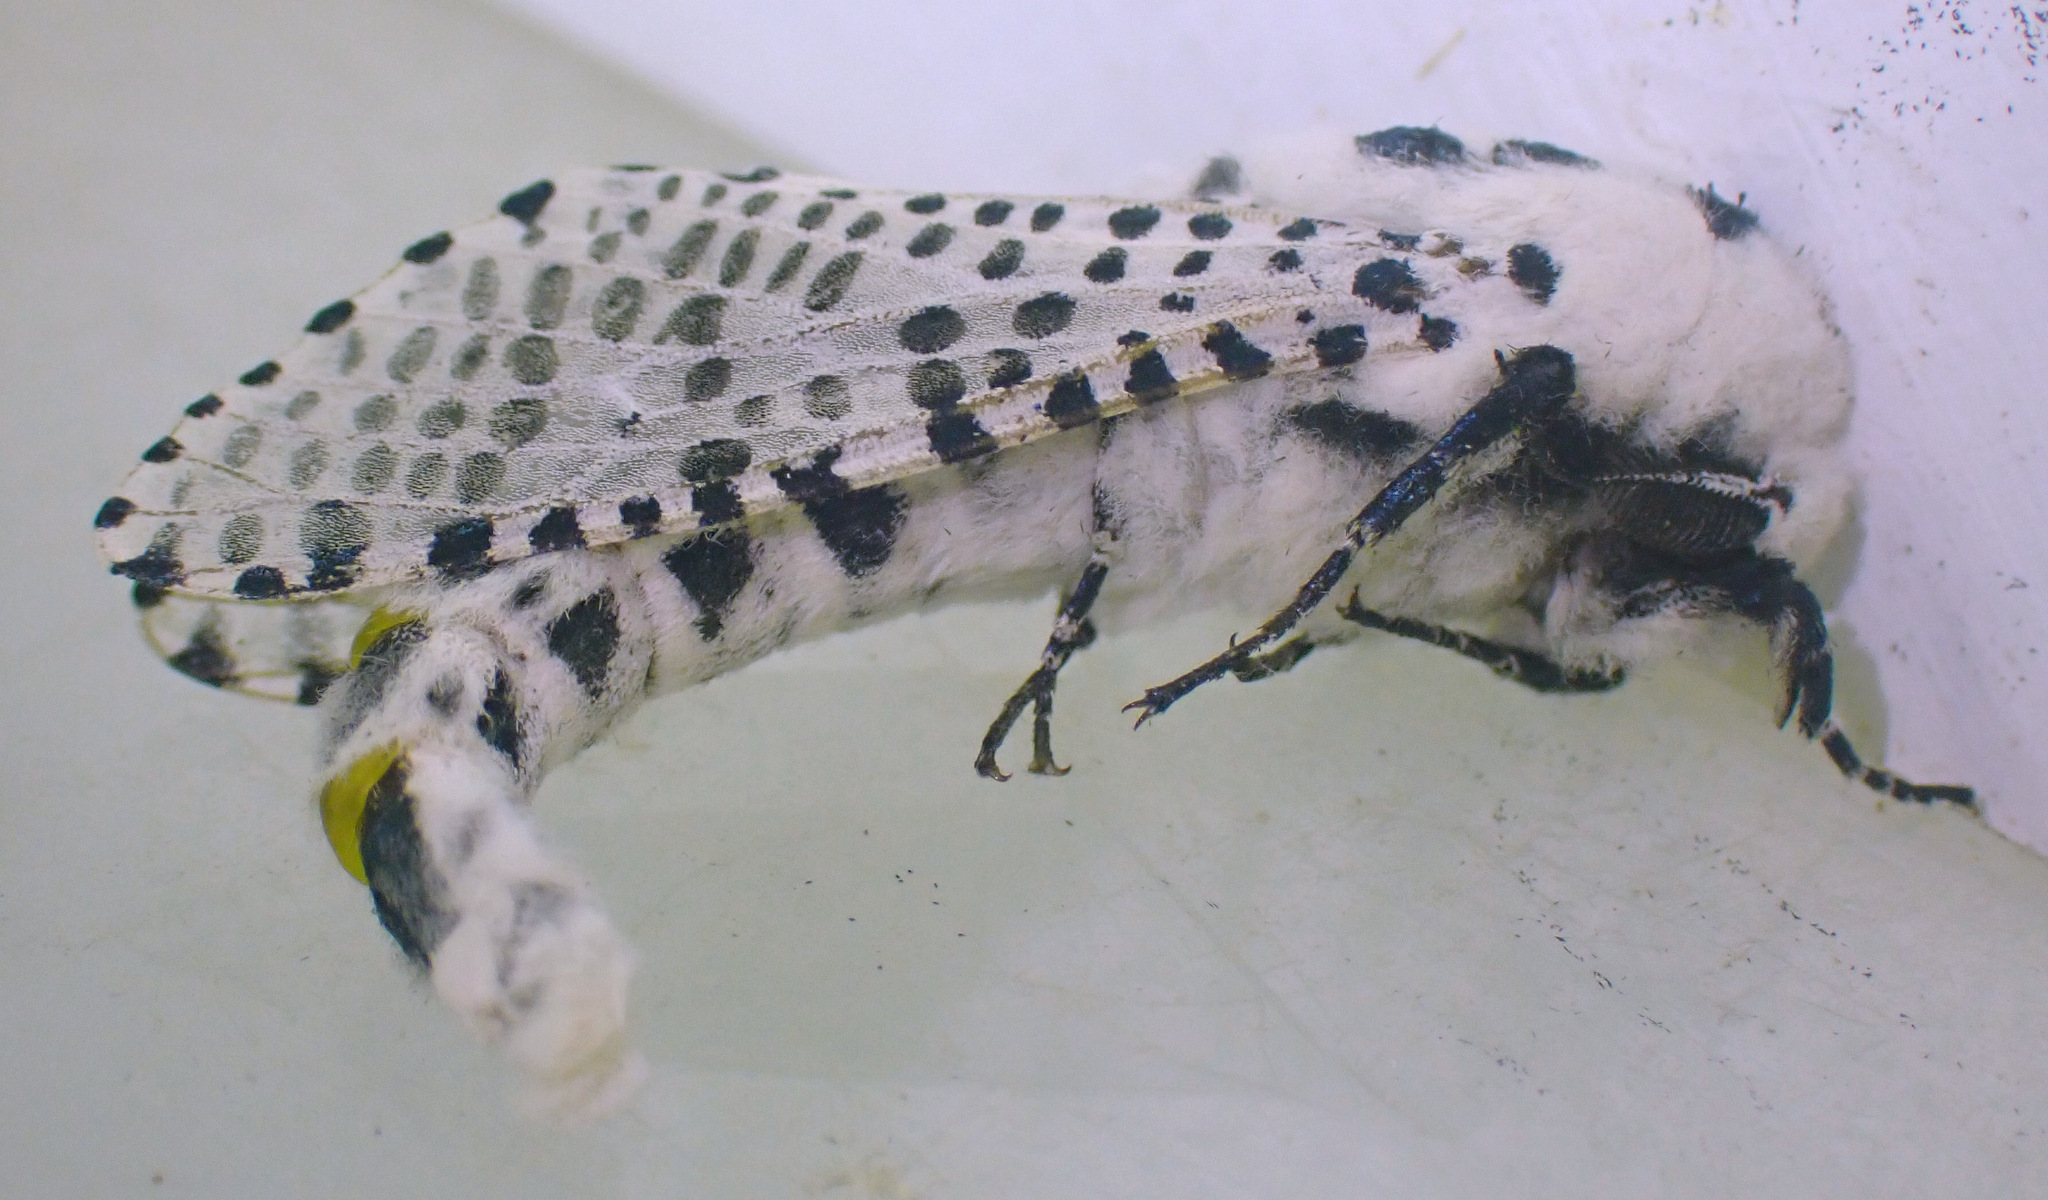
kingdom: Animalia
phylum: Arthropoda
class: Insecta
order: Lepidoptera
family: Cossidae
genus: Zeuzera
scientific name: Zeuzera pyrina
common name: Leopard moth
